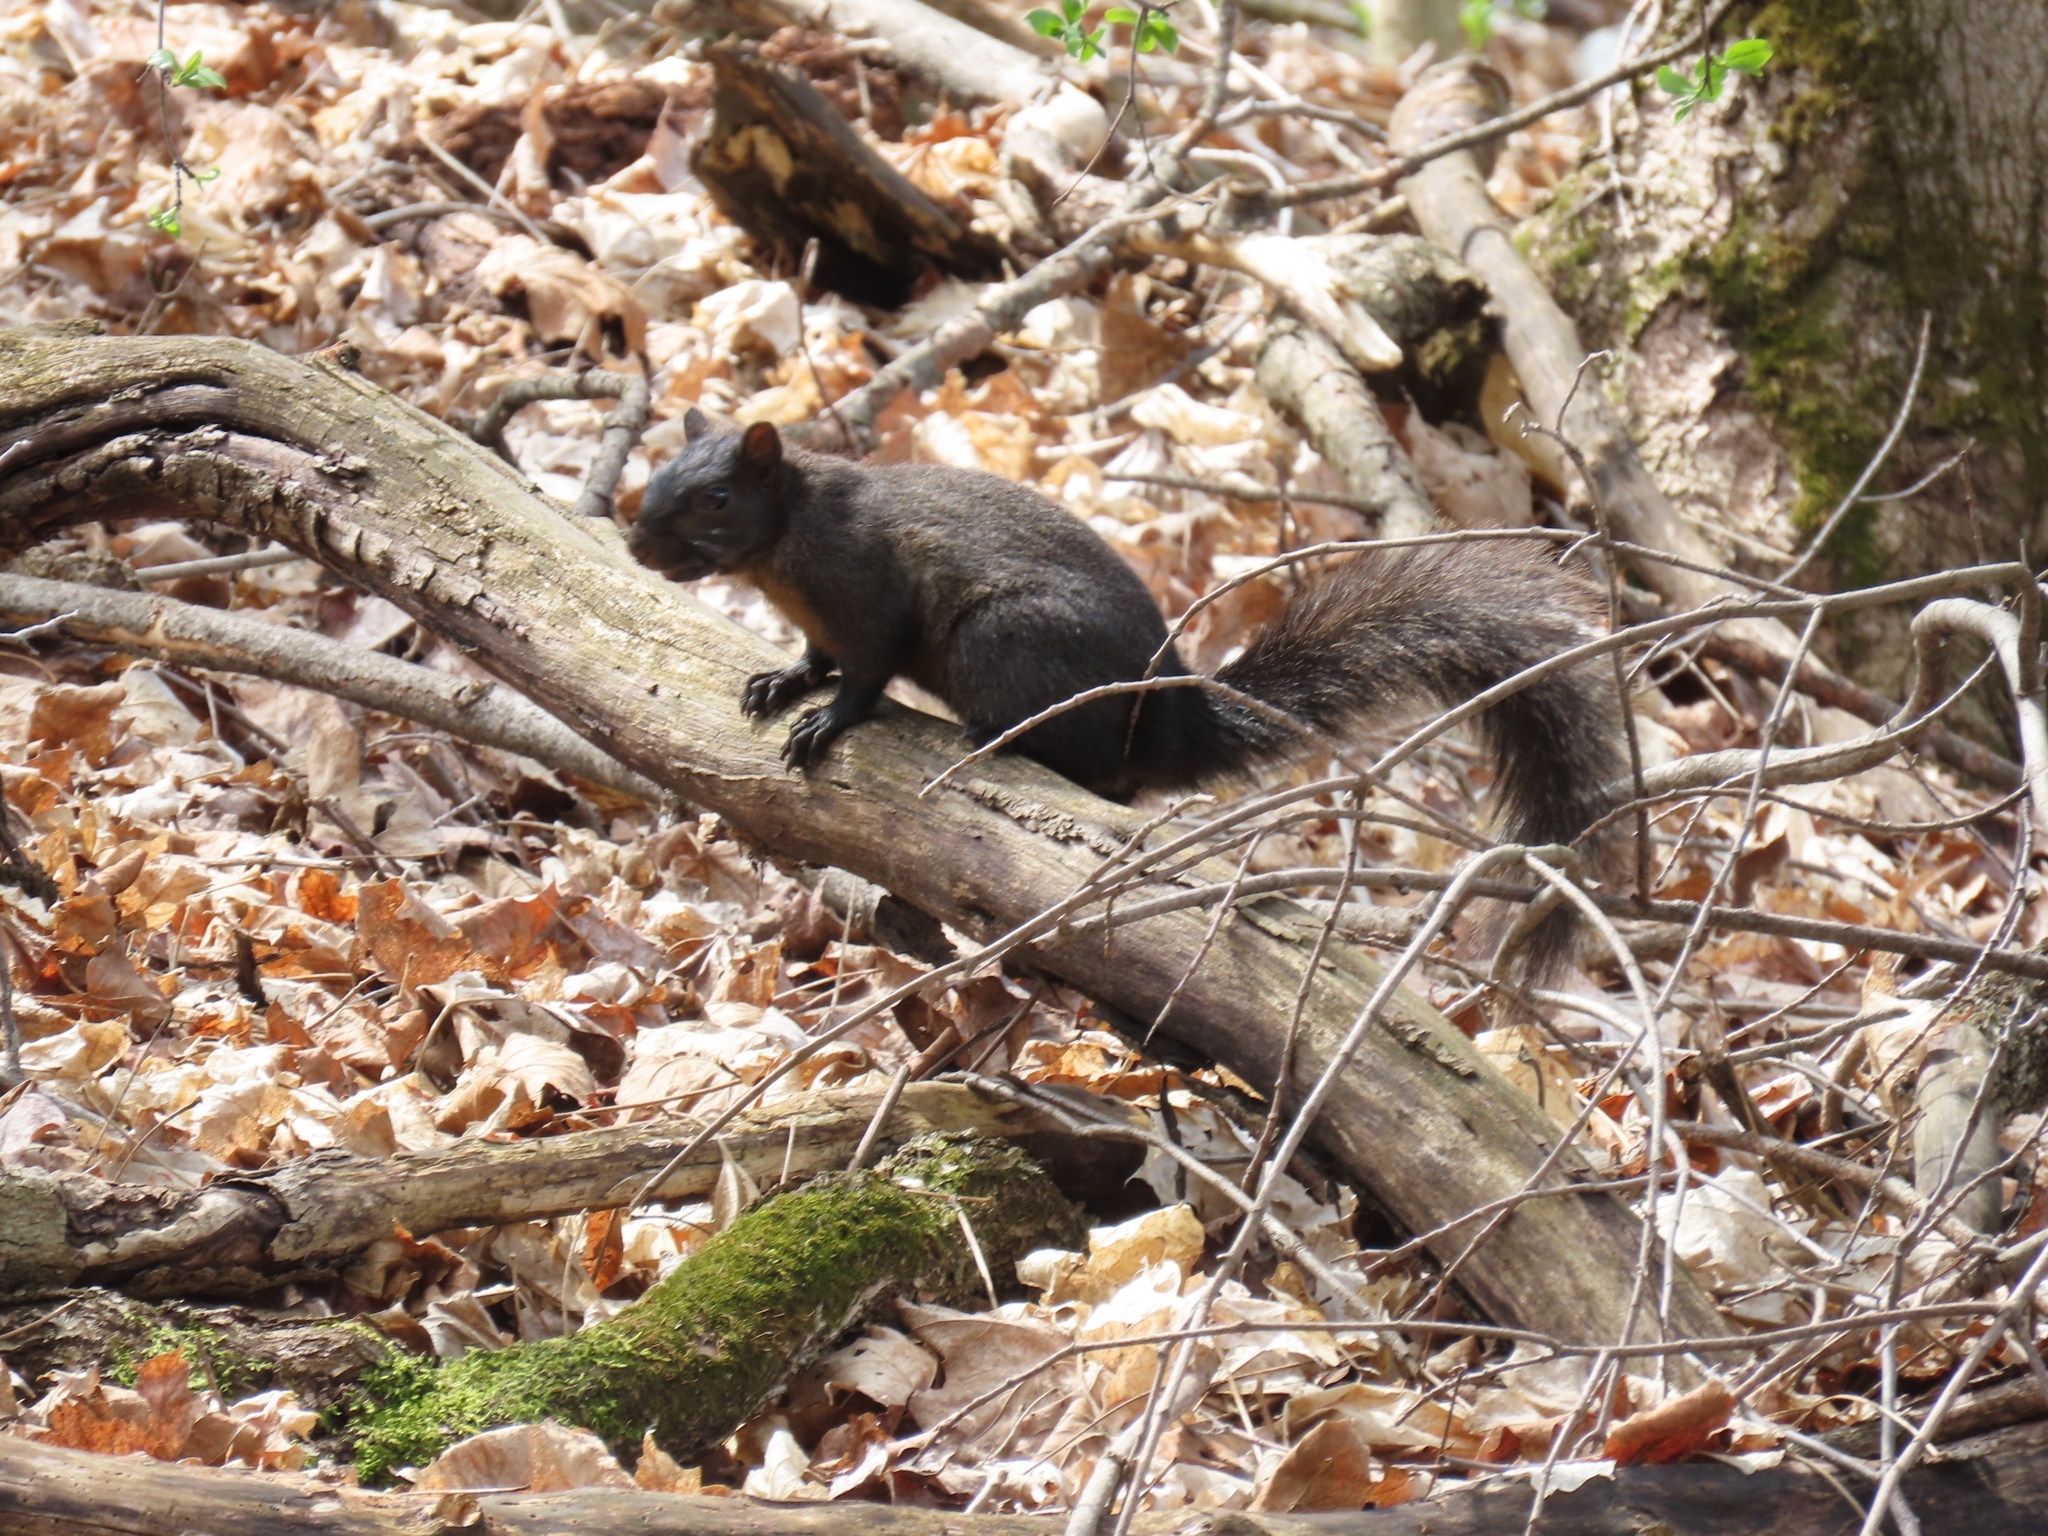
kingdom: Animalia
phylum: Chordata
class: Mammalia
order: Rodentia
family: Sciuridae
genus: Sciurus
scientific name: Sciurus carolinensis
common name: Eastern gray squirrel
